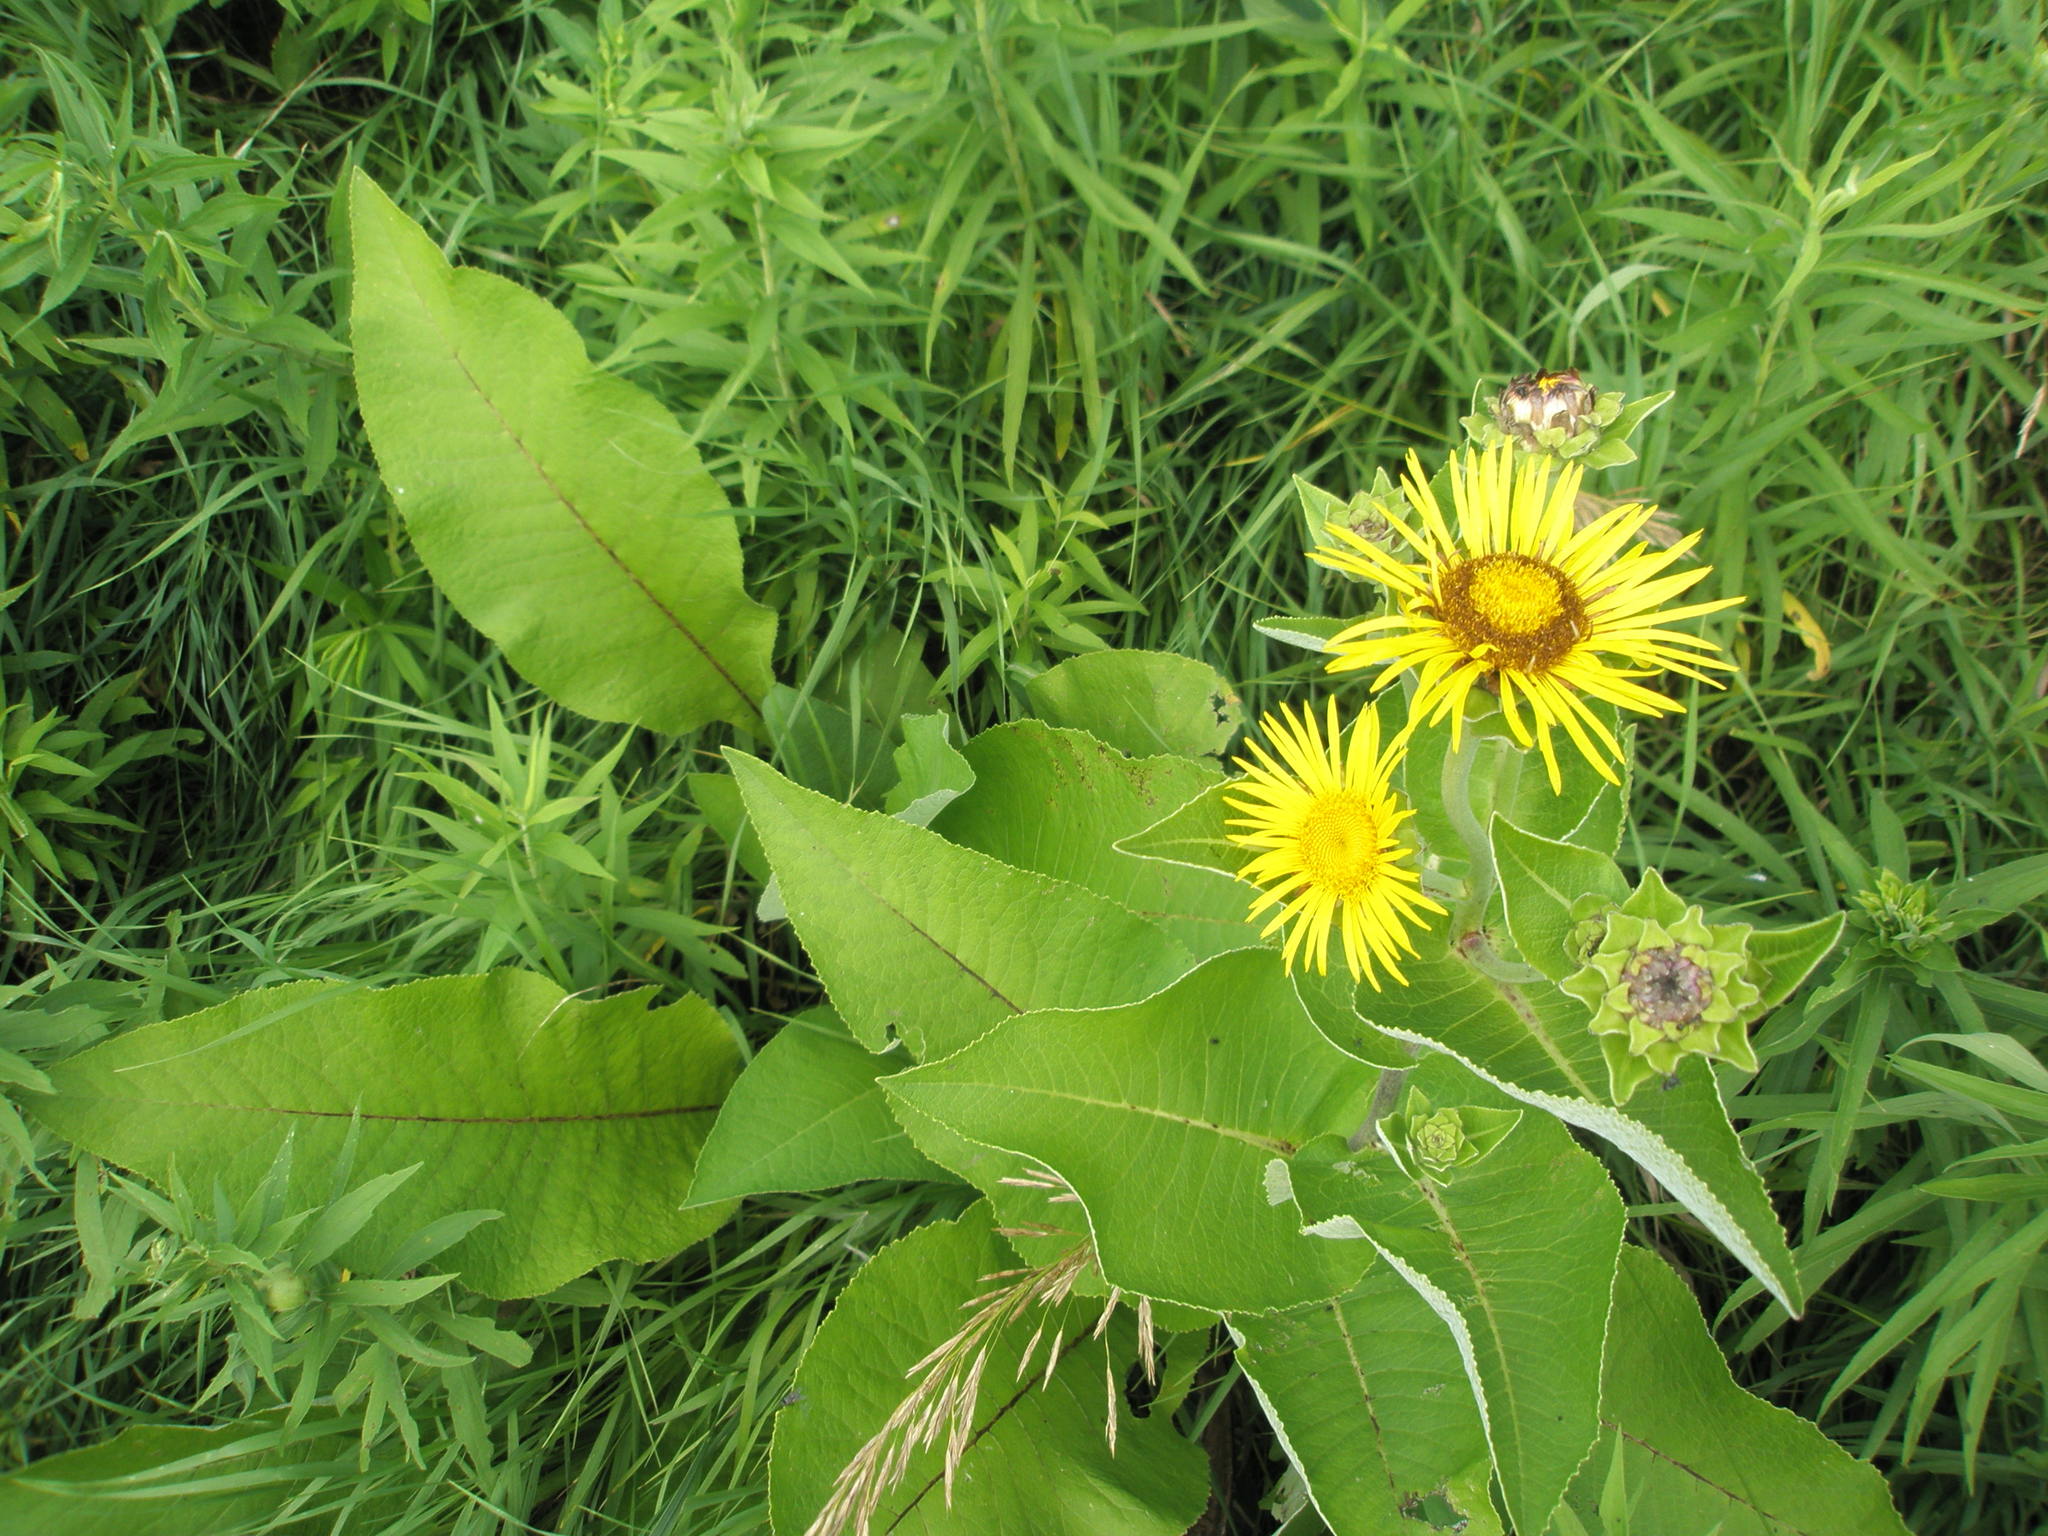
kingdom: Plantae
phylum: Tracheophyta
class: Magnoliopsida
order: Asterales
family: Asteraceae
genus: Inula
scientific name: Inula helenium
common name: Elecampane
